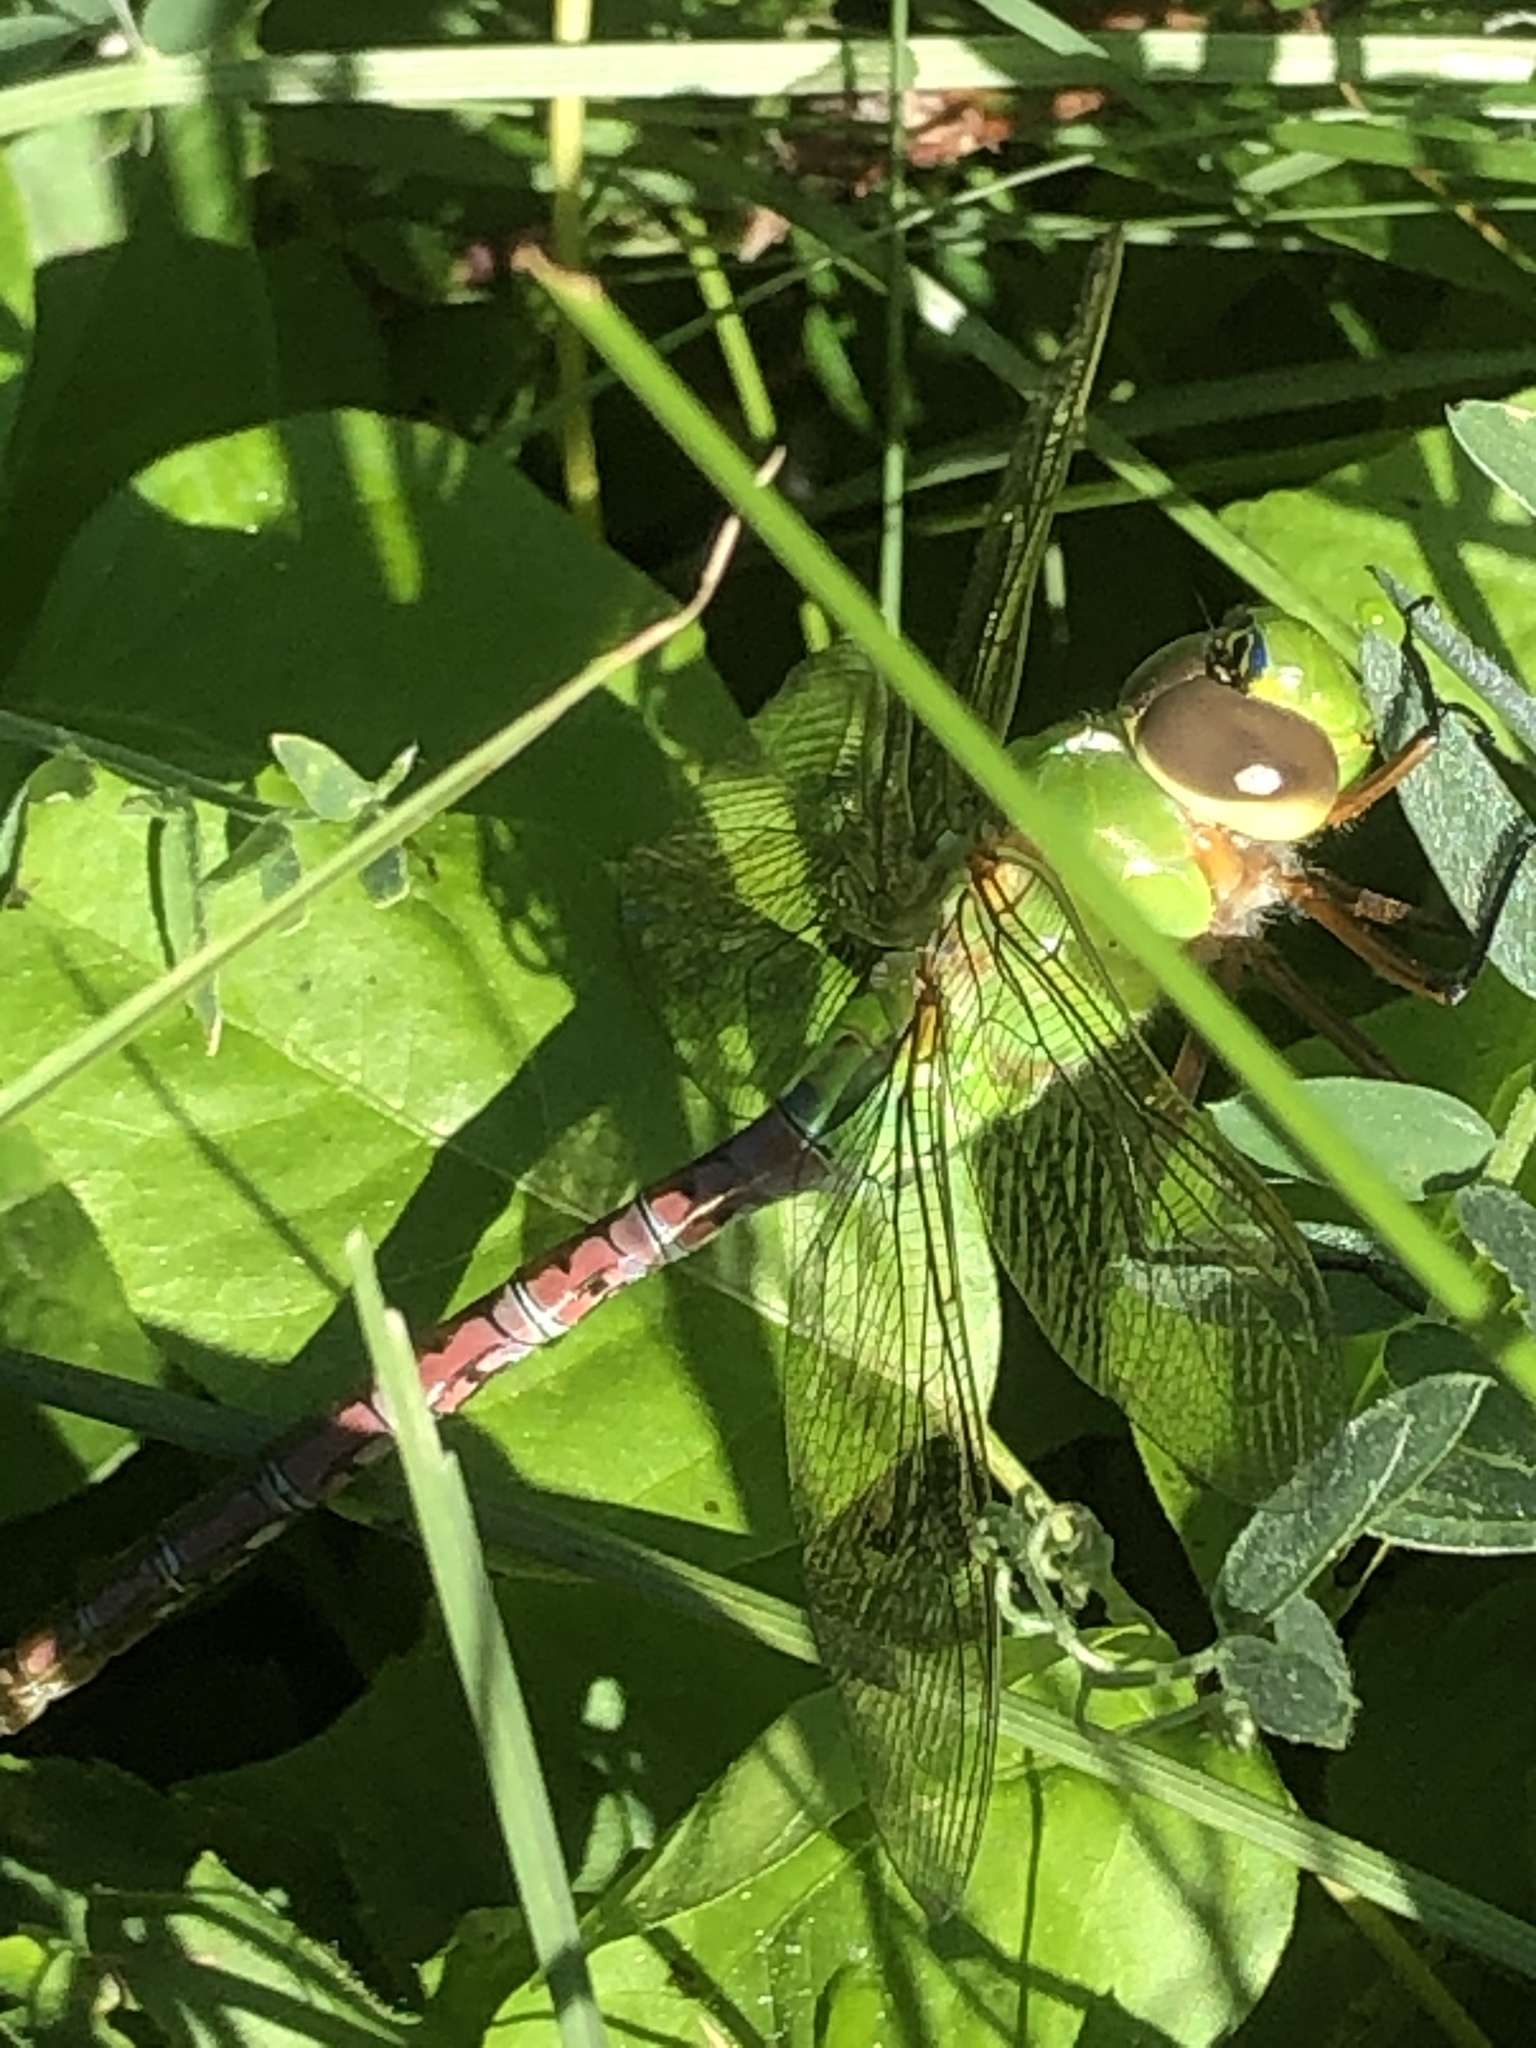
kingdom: Animalia
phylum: Arthropoda
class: Insecta
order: Odonata
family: Aeshnidae
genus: Anax
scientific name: Anax junius
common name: Common green darner
